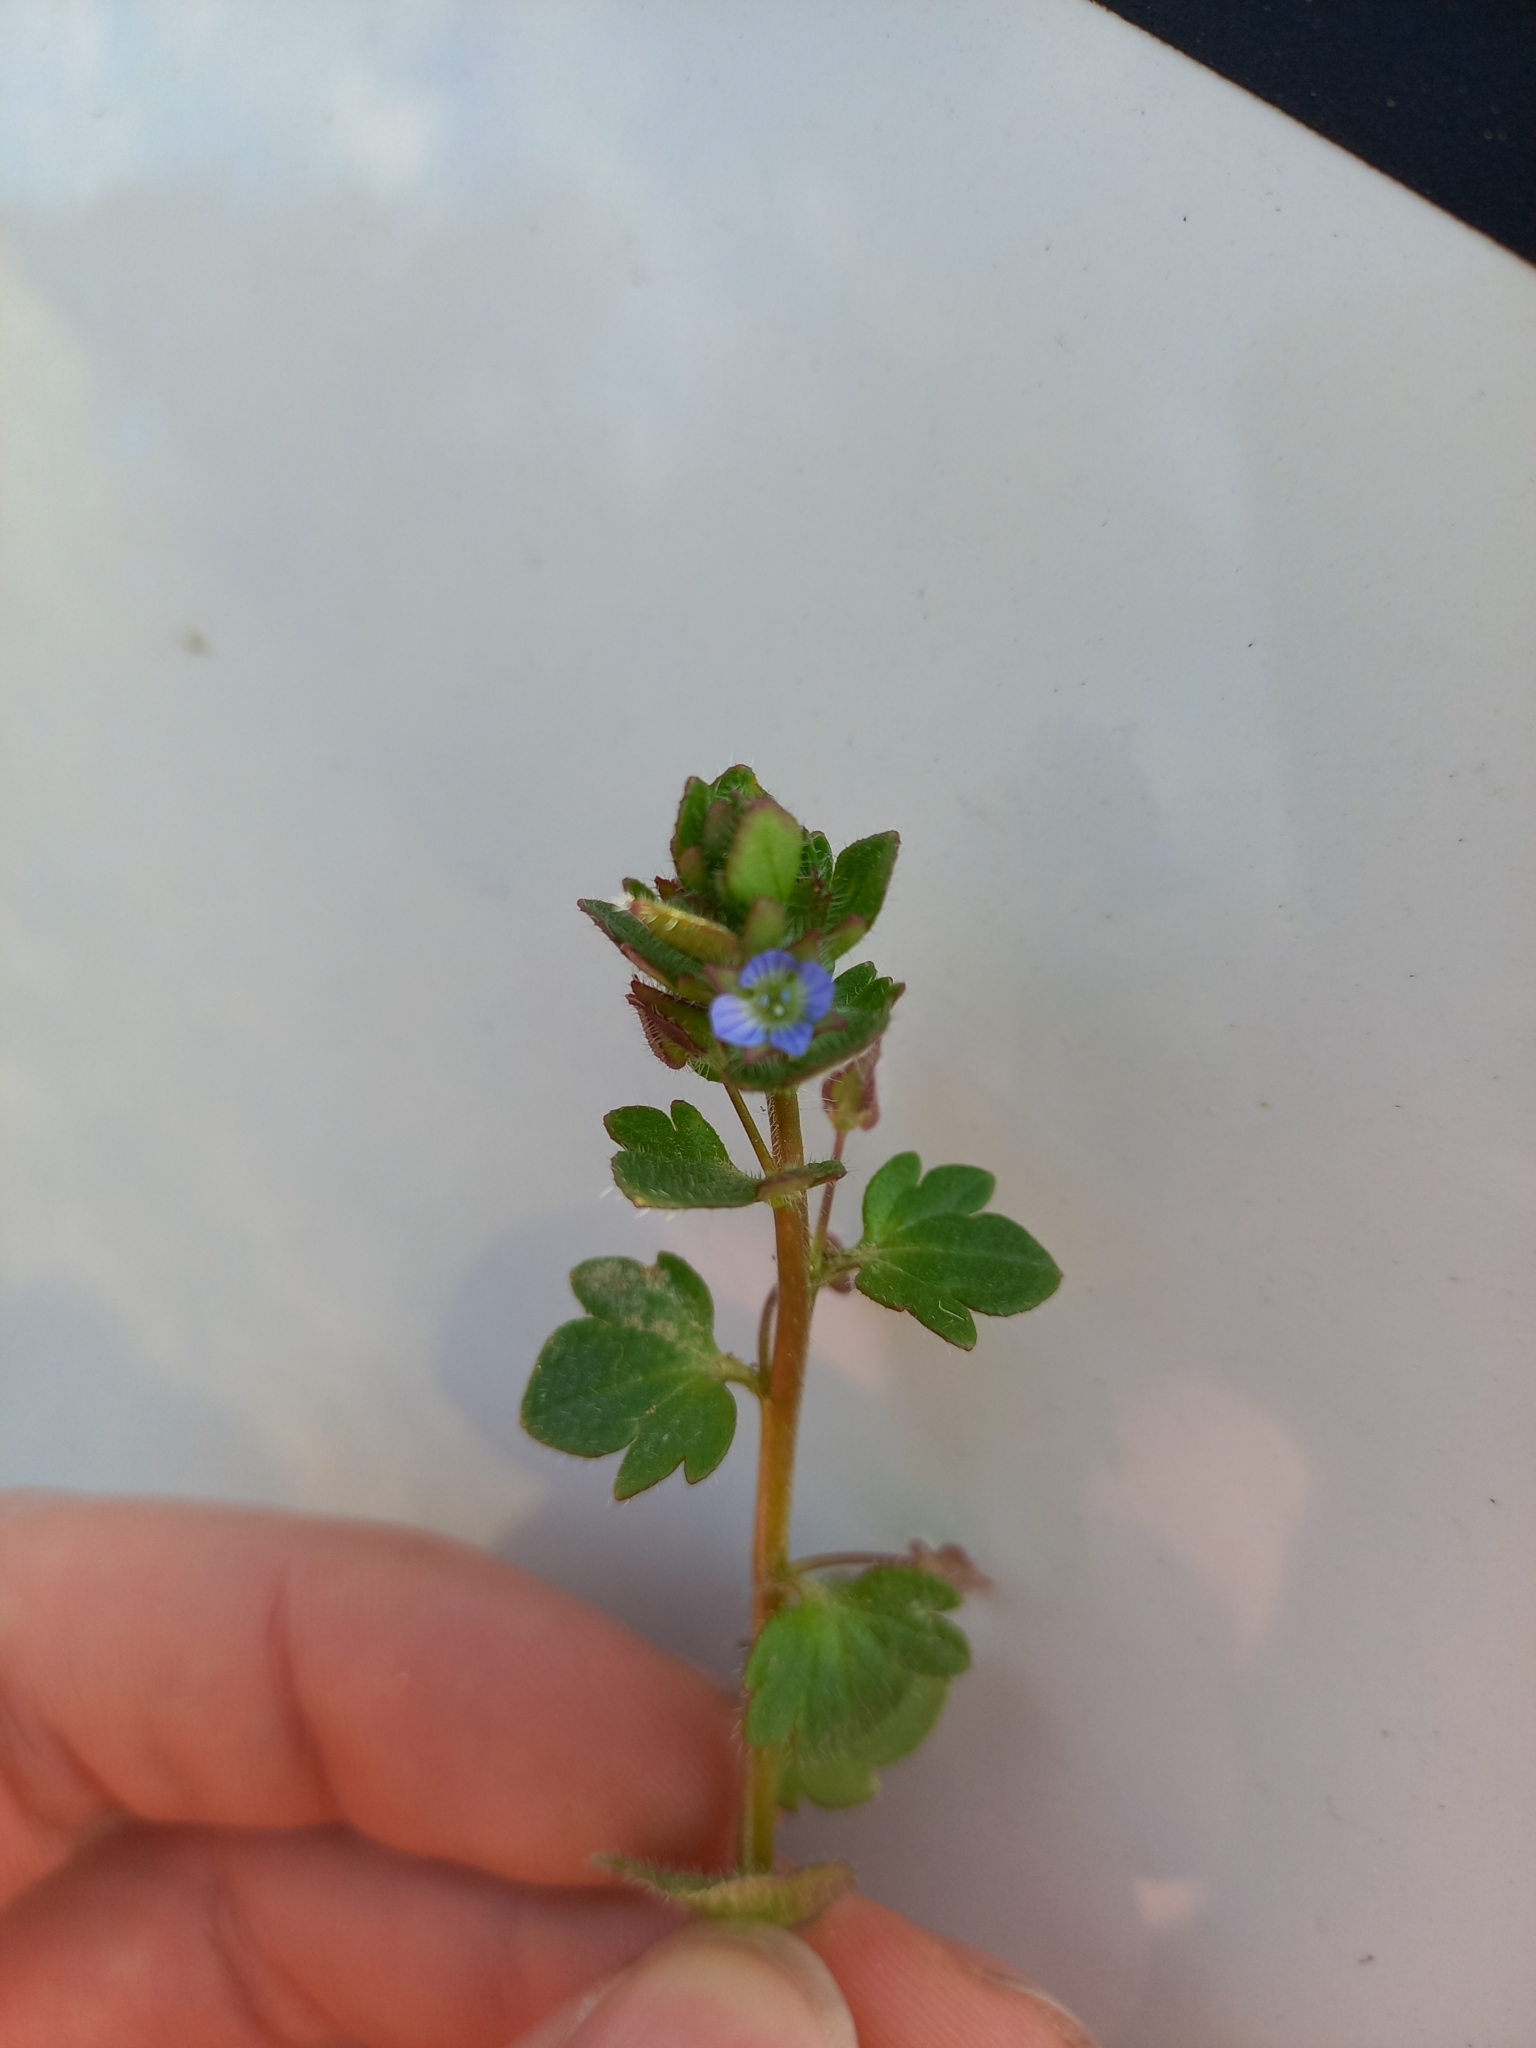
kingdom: Plantae
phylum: Tracheophyta
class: Magnoliopsida
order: Lamiales
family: Plantaginaceae
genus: Veronica
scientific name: Veronica hederifolia
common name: Ivy-leaved speedwell
